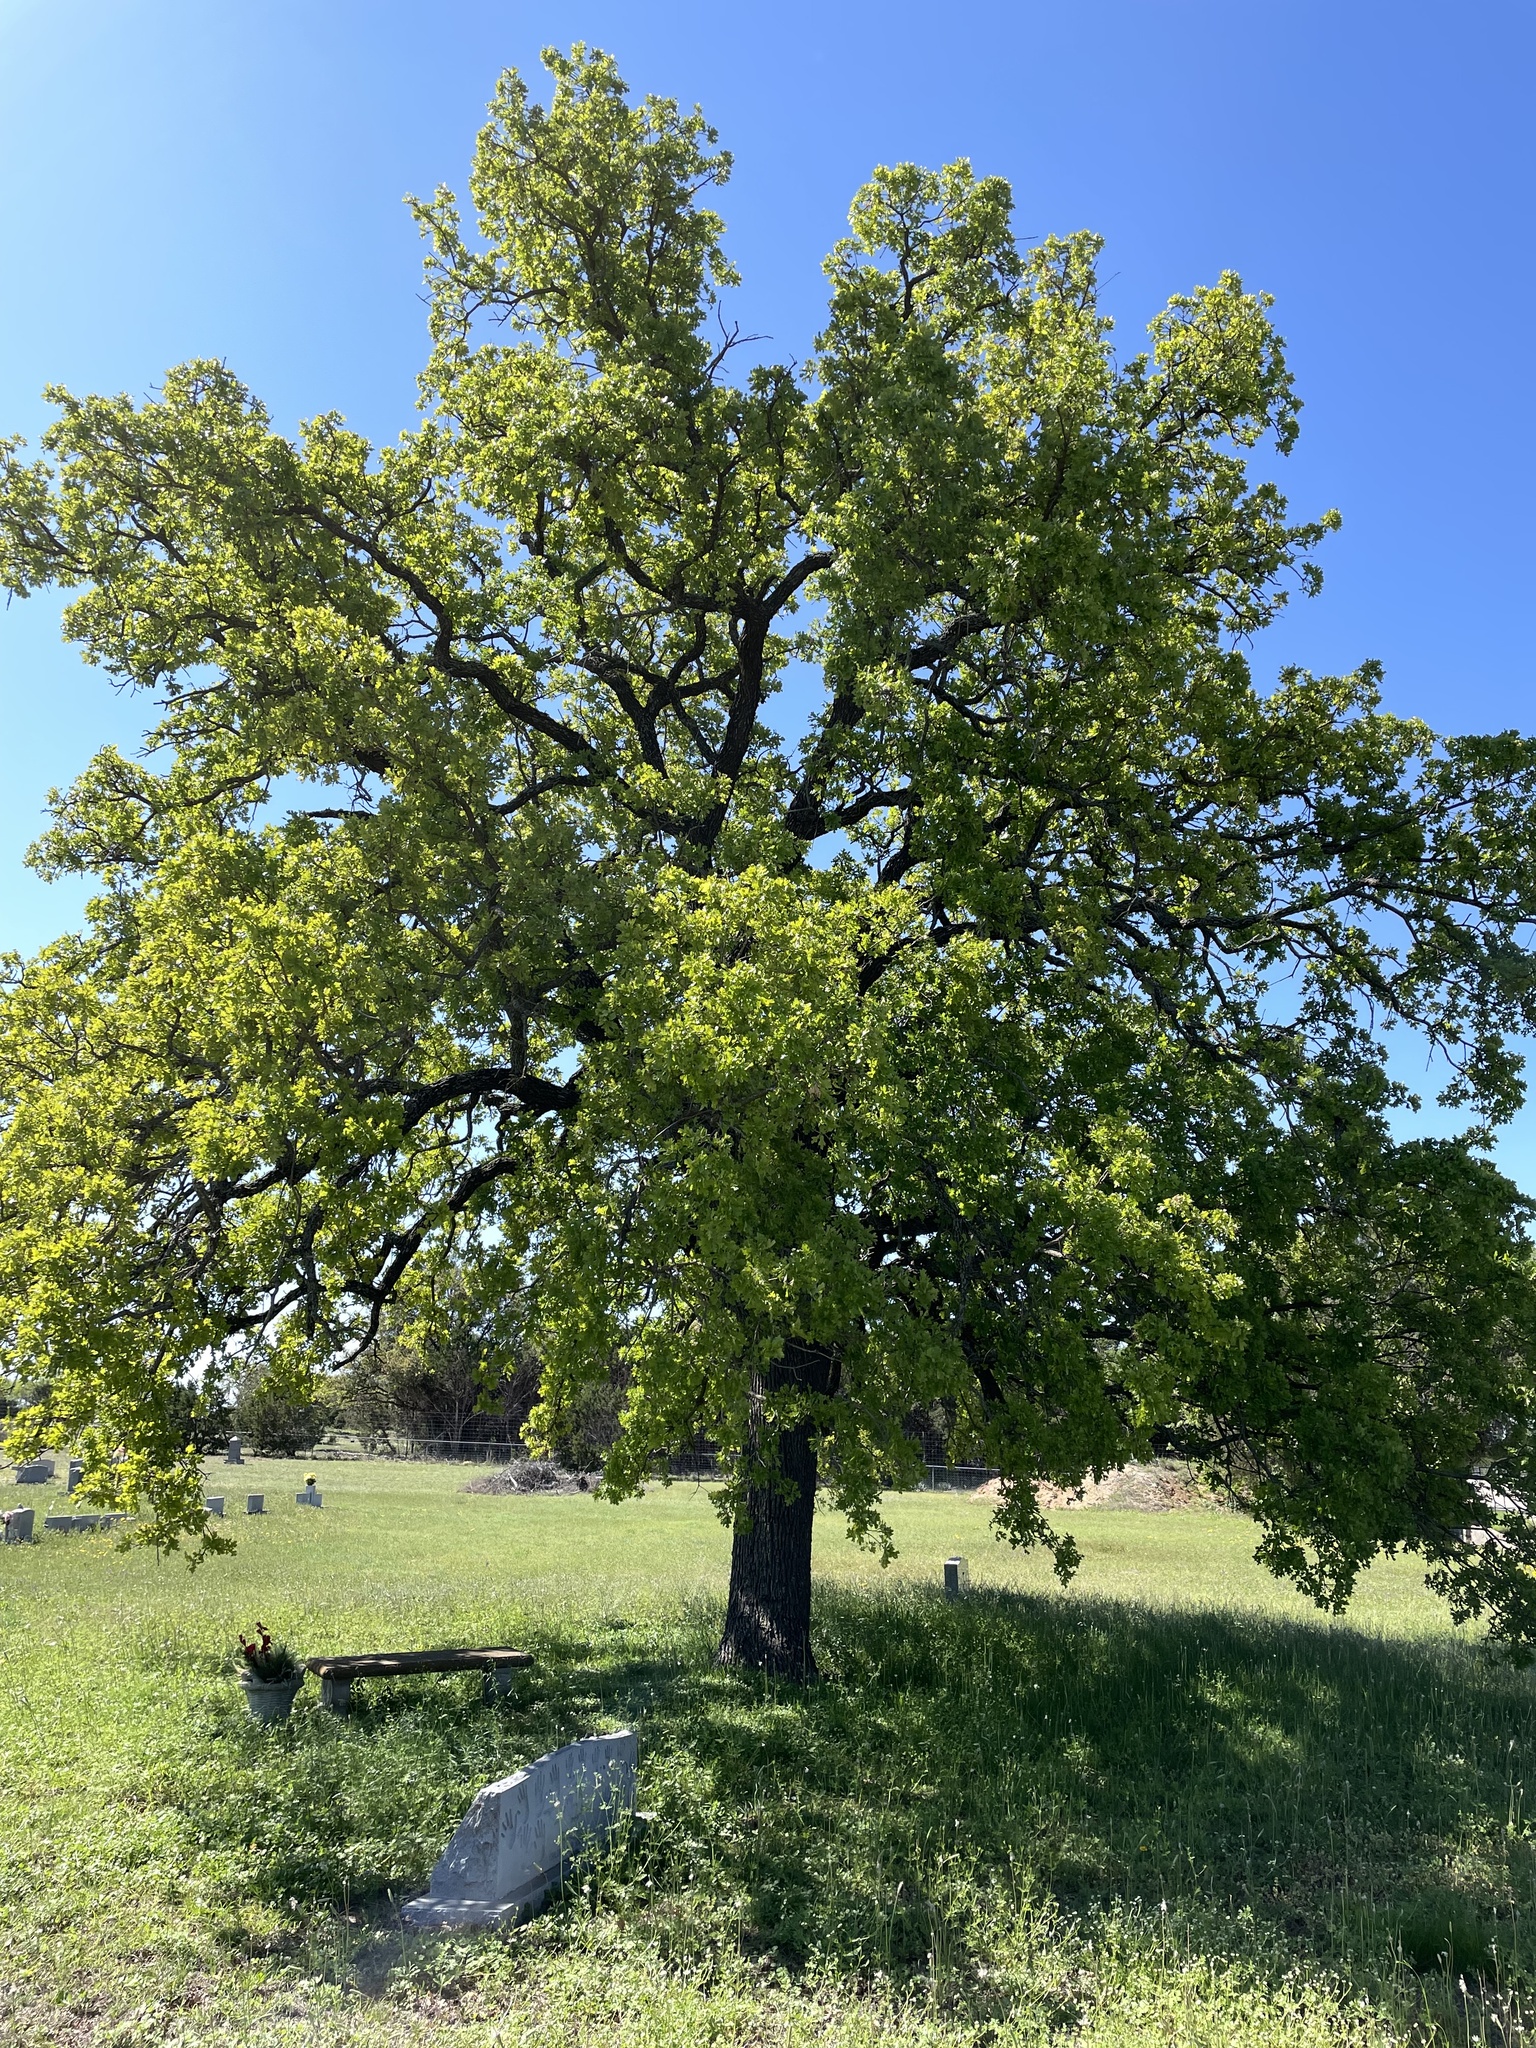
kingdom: Plantae
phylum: Tracheophyta
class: Magnoliopsida
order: Fagales
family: Fagaceae
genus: Quercus
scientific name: Quercus stellata
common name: Post oak
